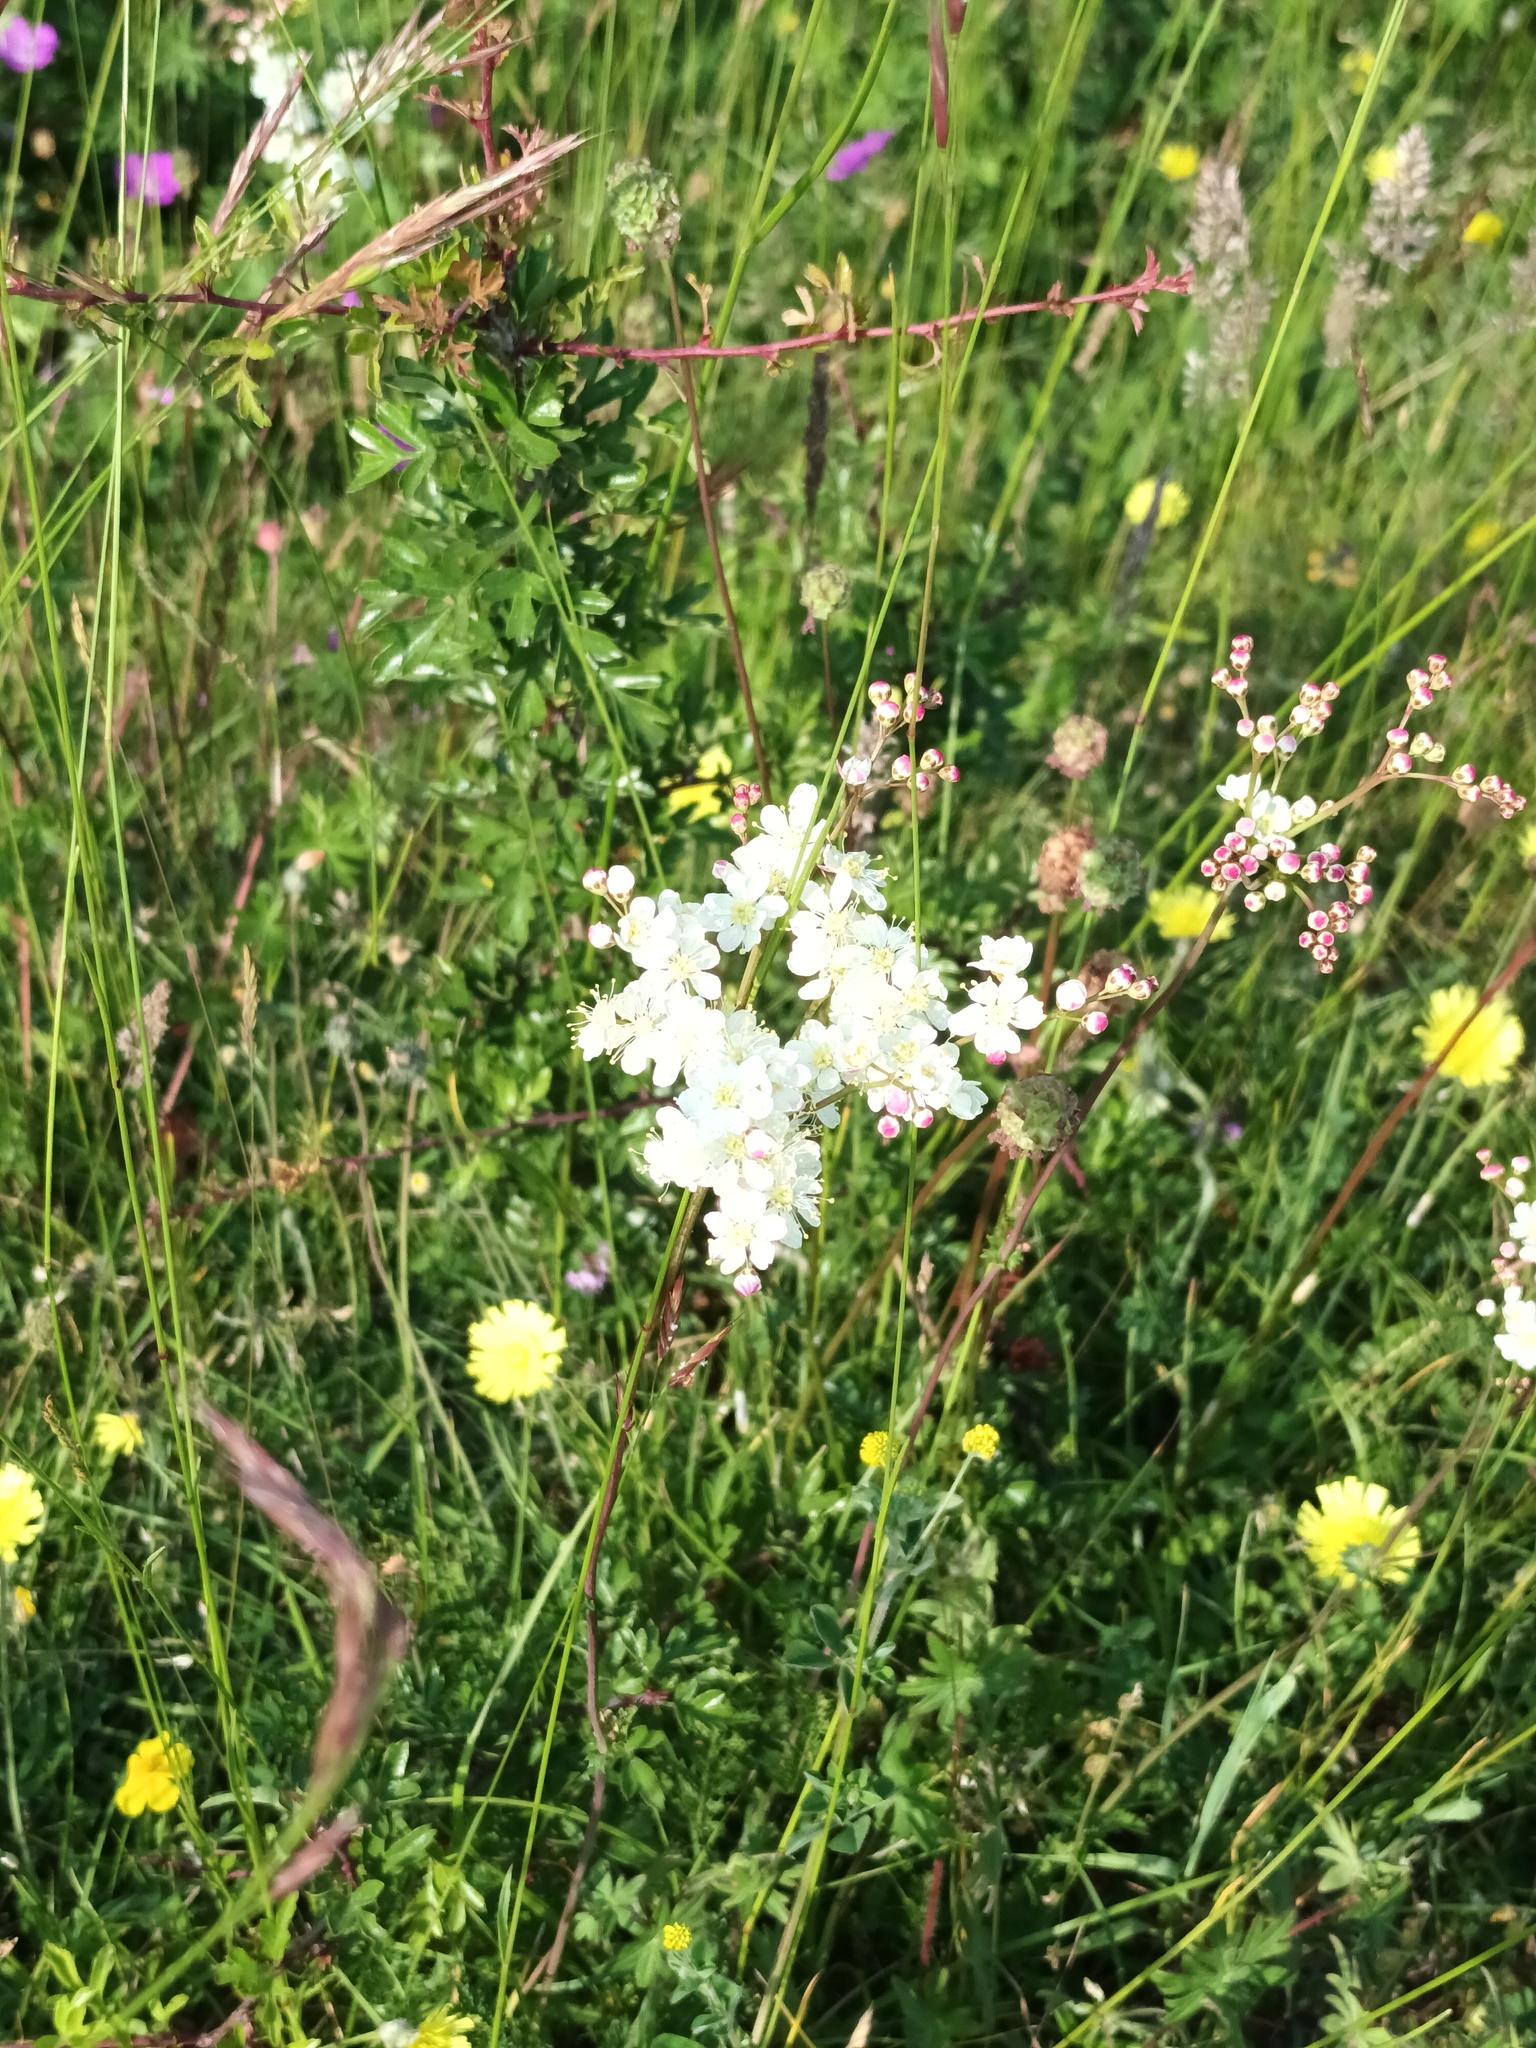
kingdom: Plantae
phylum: Tracheophyta
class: Magnoliopsida
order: Rosales
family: Rosaceae
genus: Filipendula
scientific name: Filipendula vulgaris
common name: Dropwort
